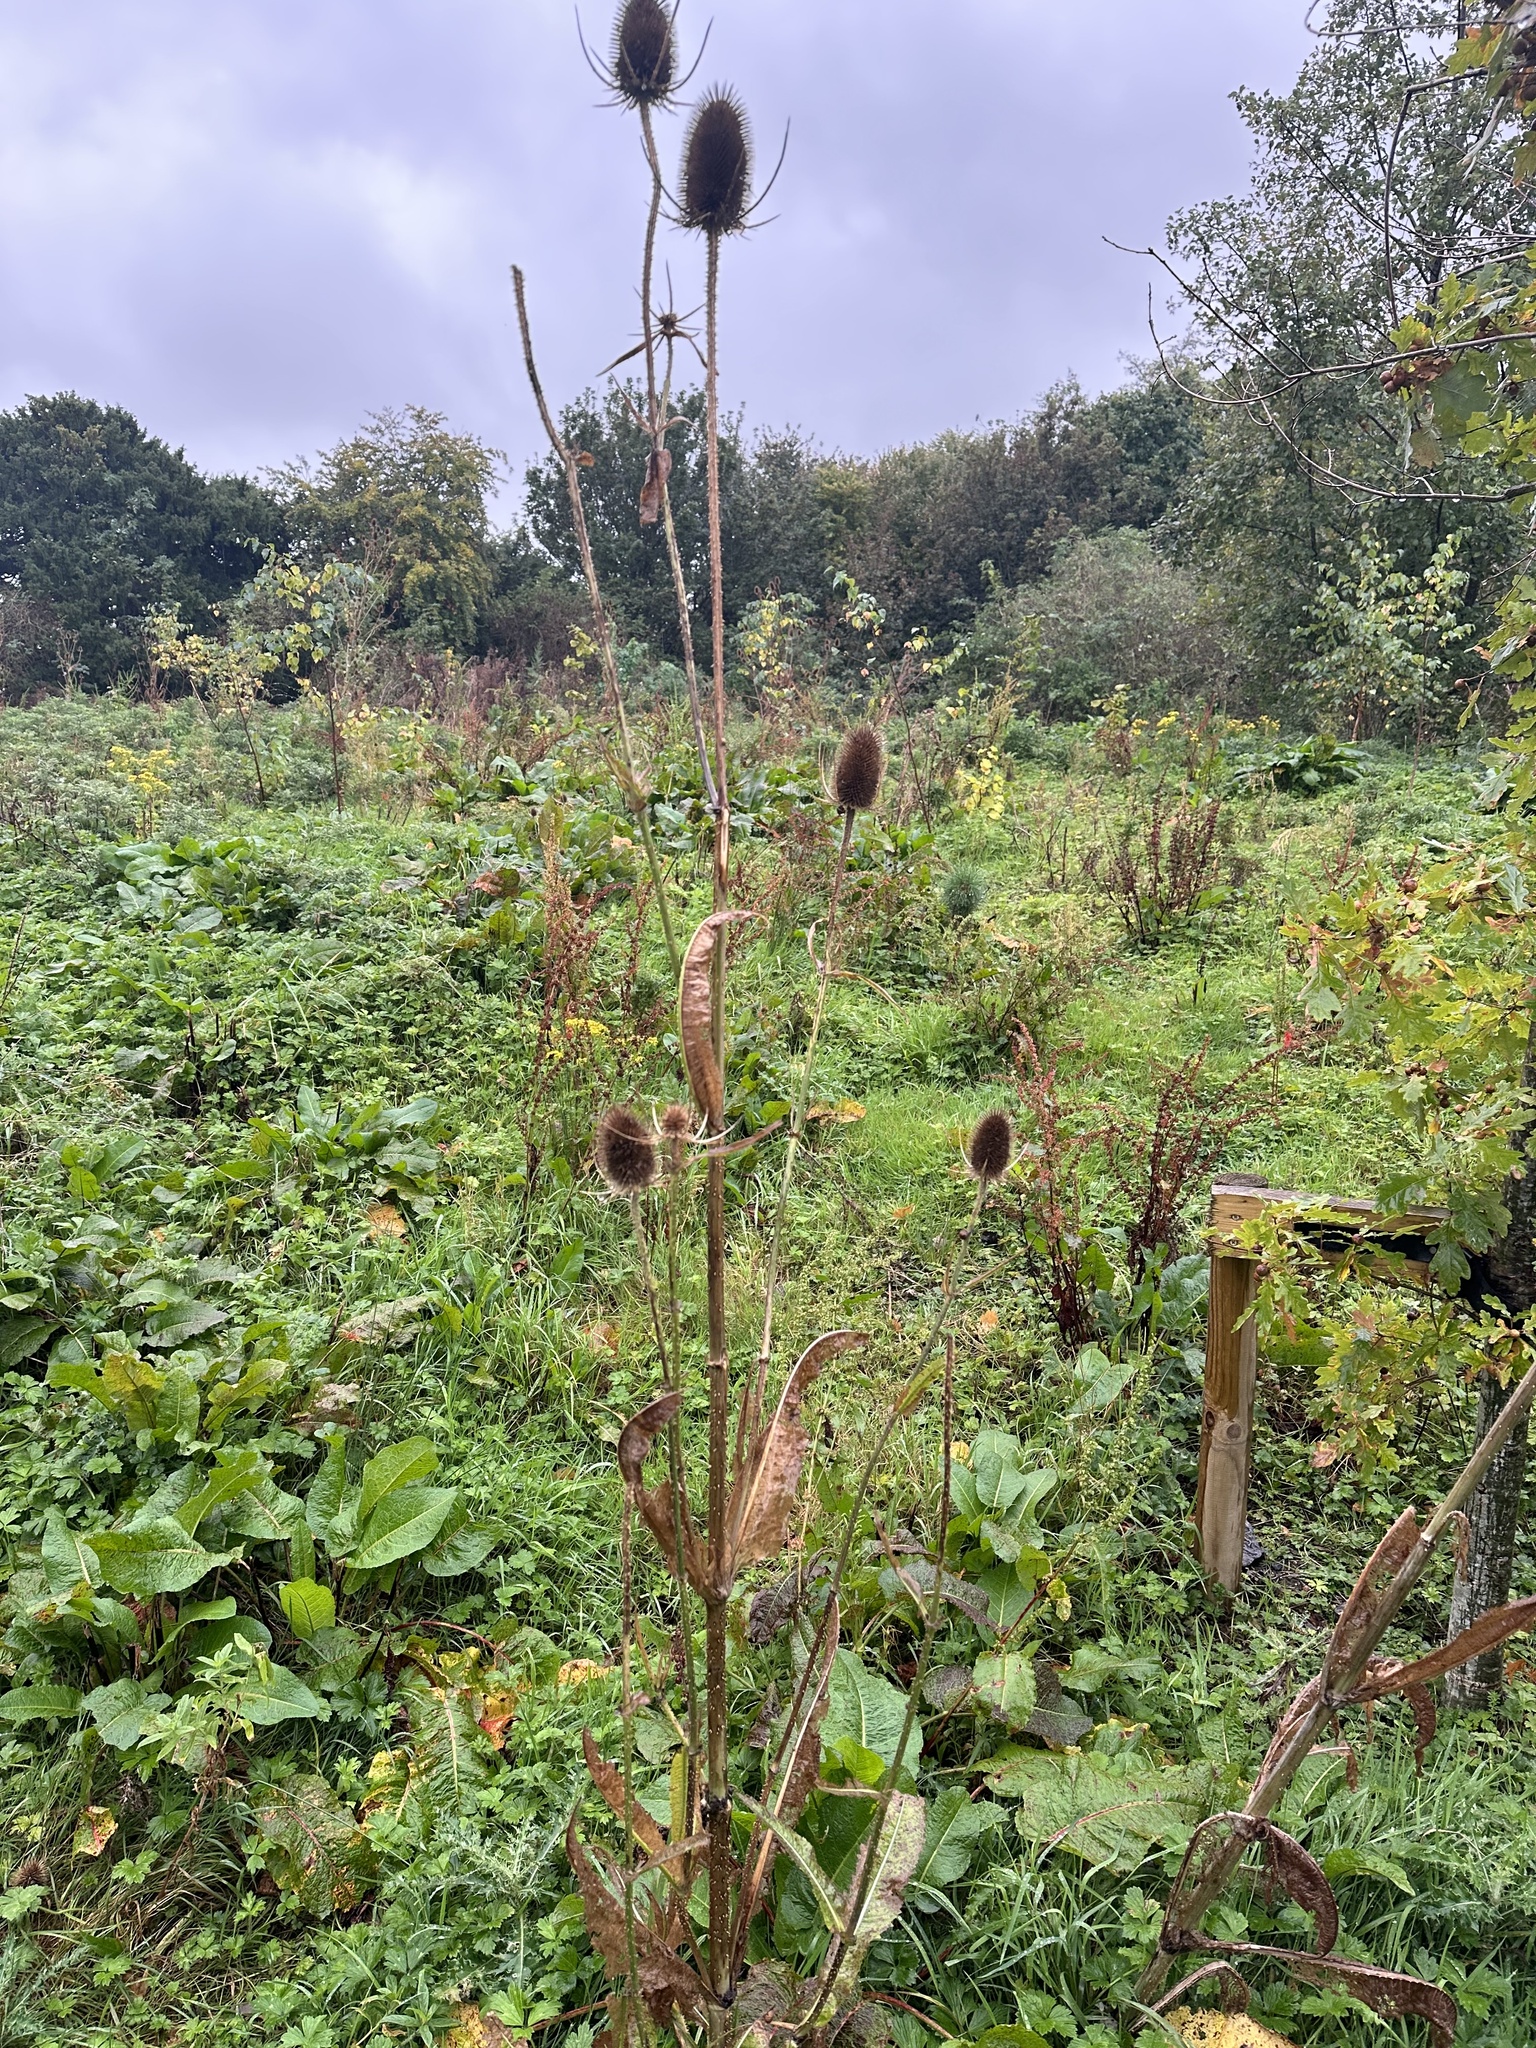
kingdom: Plantae
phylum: Tracheophyta
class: Magnoliopsida
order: Dipsacales
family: Caprifoliaceae
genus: Dipsacus
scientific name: Dipsacus fullonum
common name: Teasel
